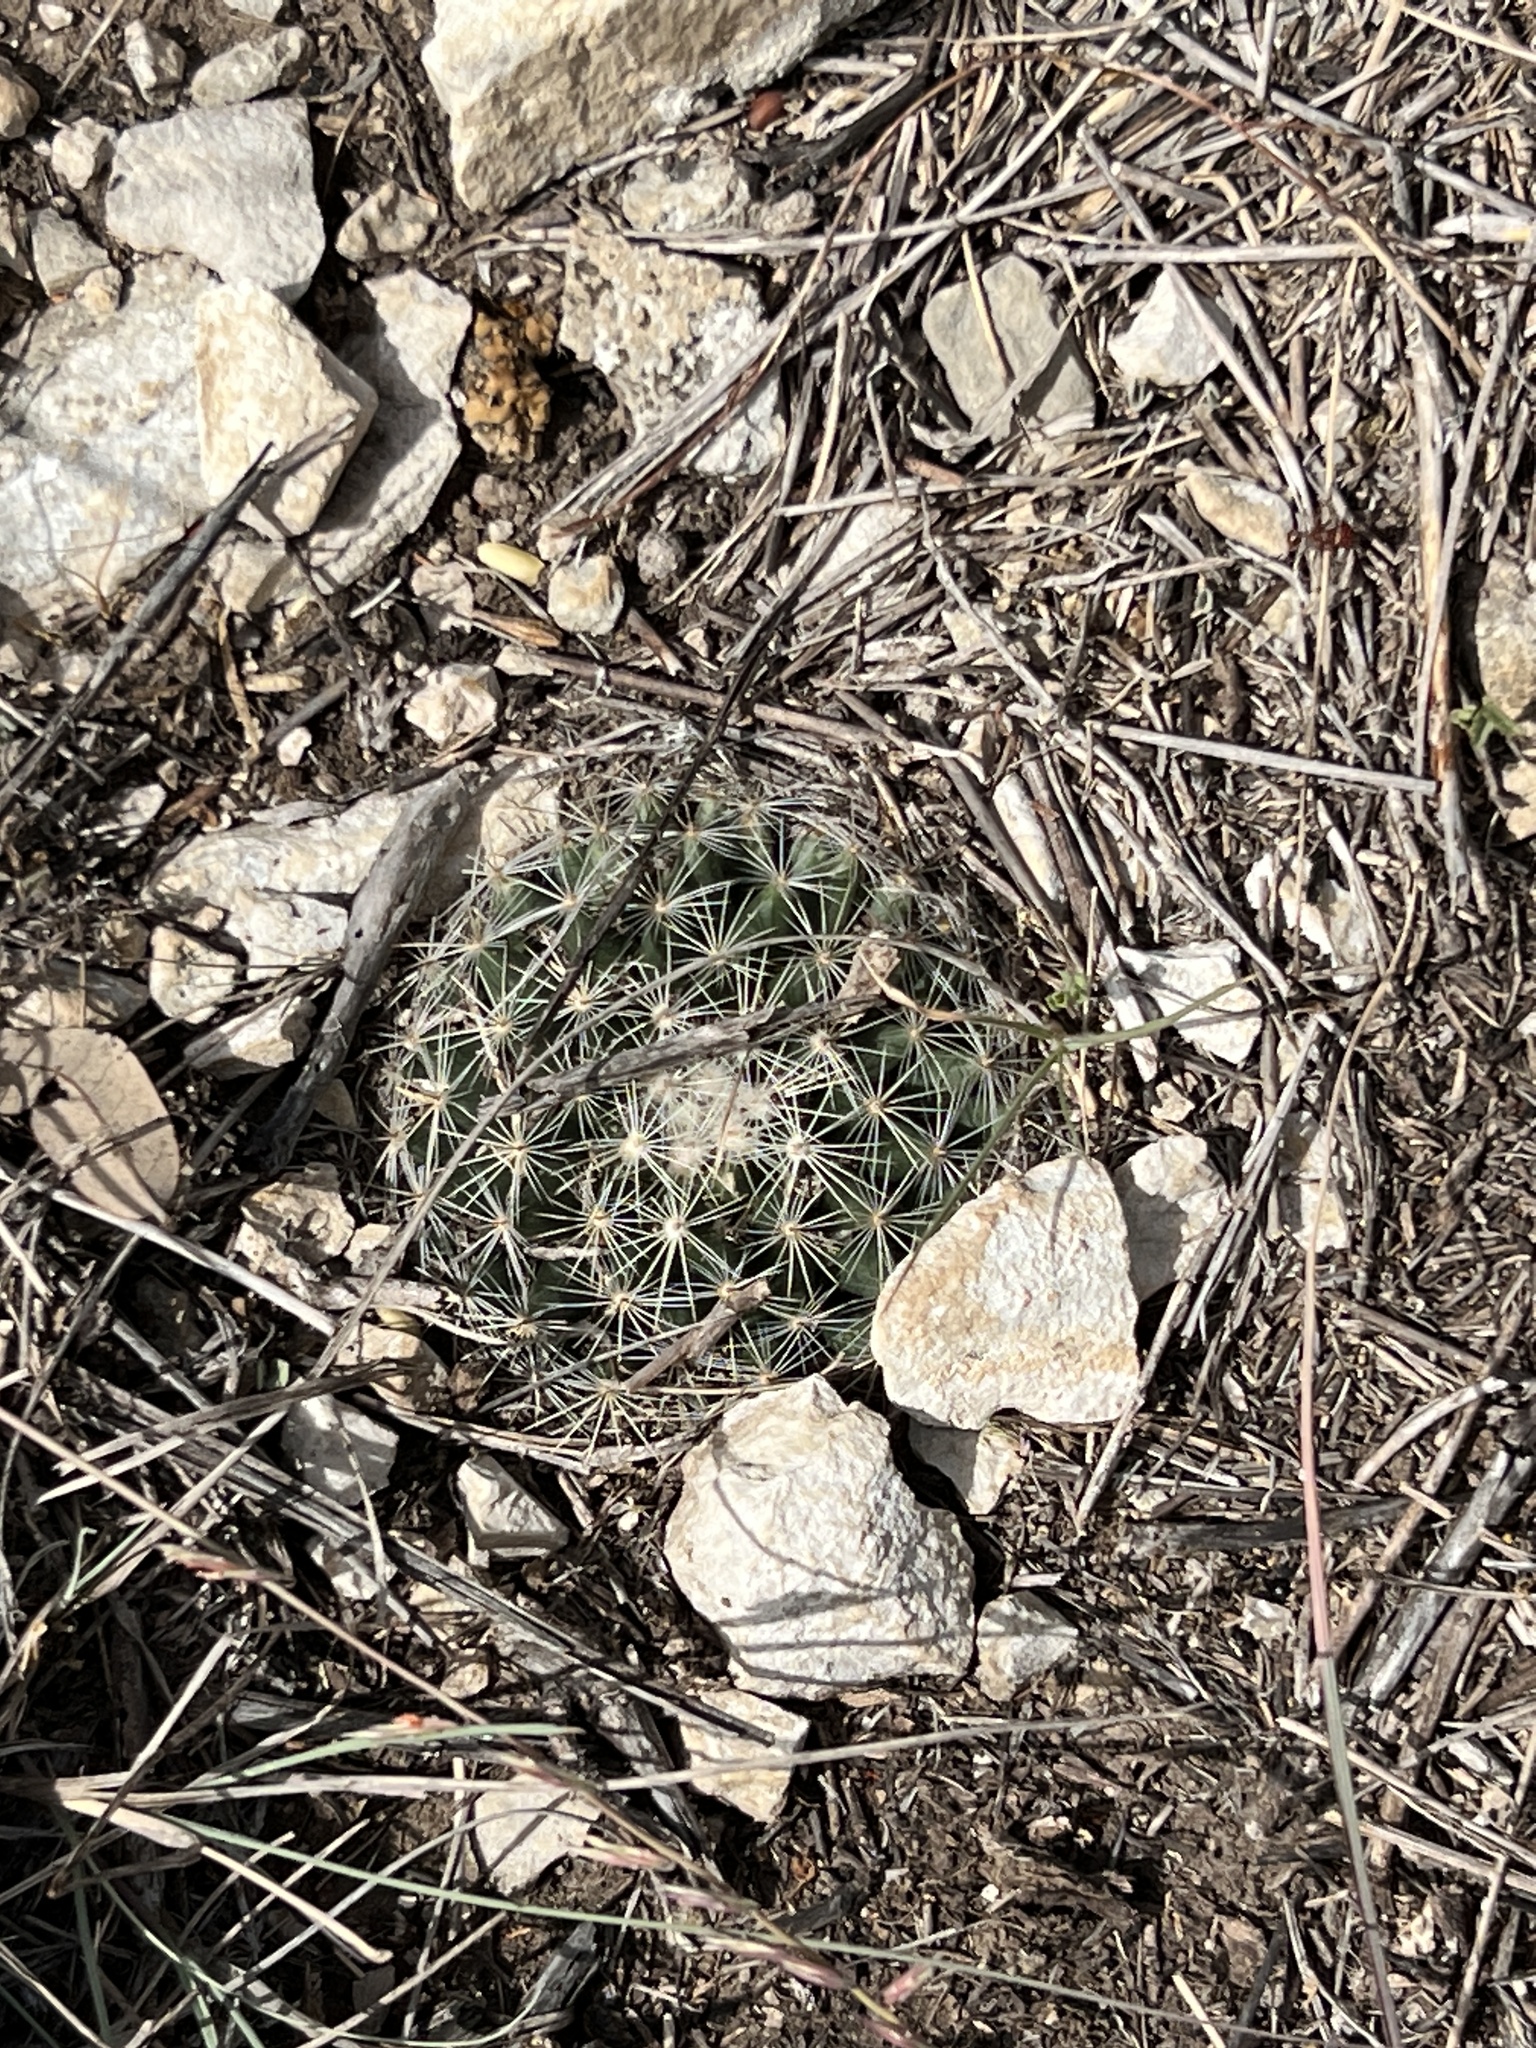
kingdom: Plantae
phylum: Tracheophyta
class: Magnoliopsida
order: Caryophyllales
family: Cactaceae
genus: Mammillaria
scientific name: Mammillaria heyderi
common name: Little nipple cactus
